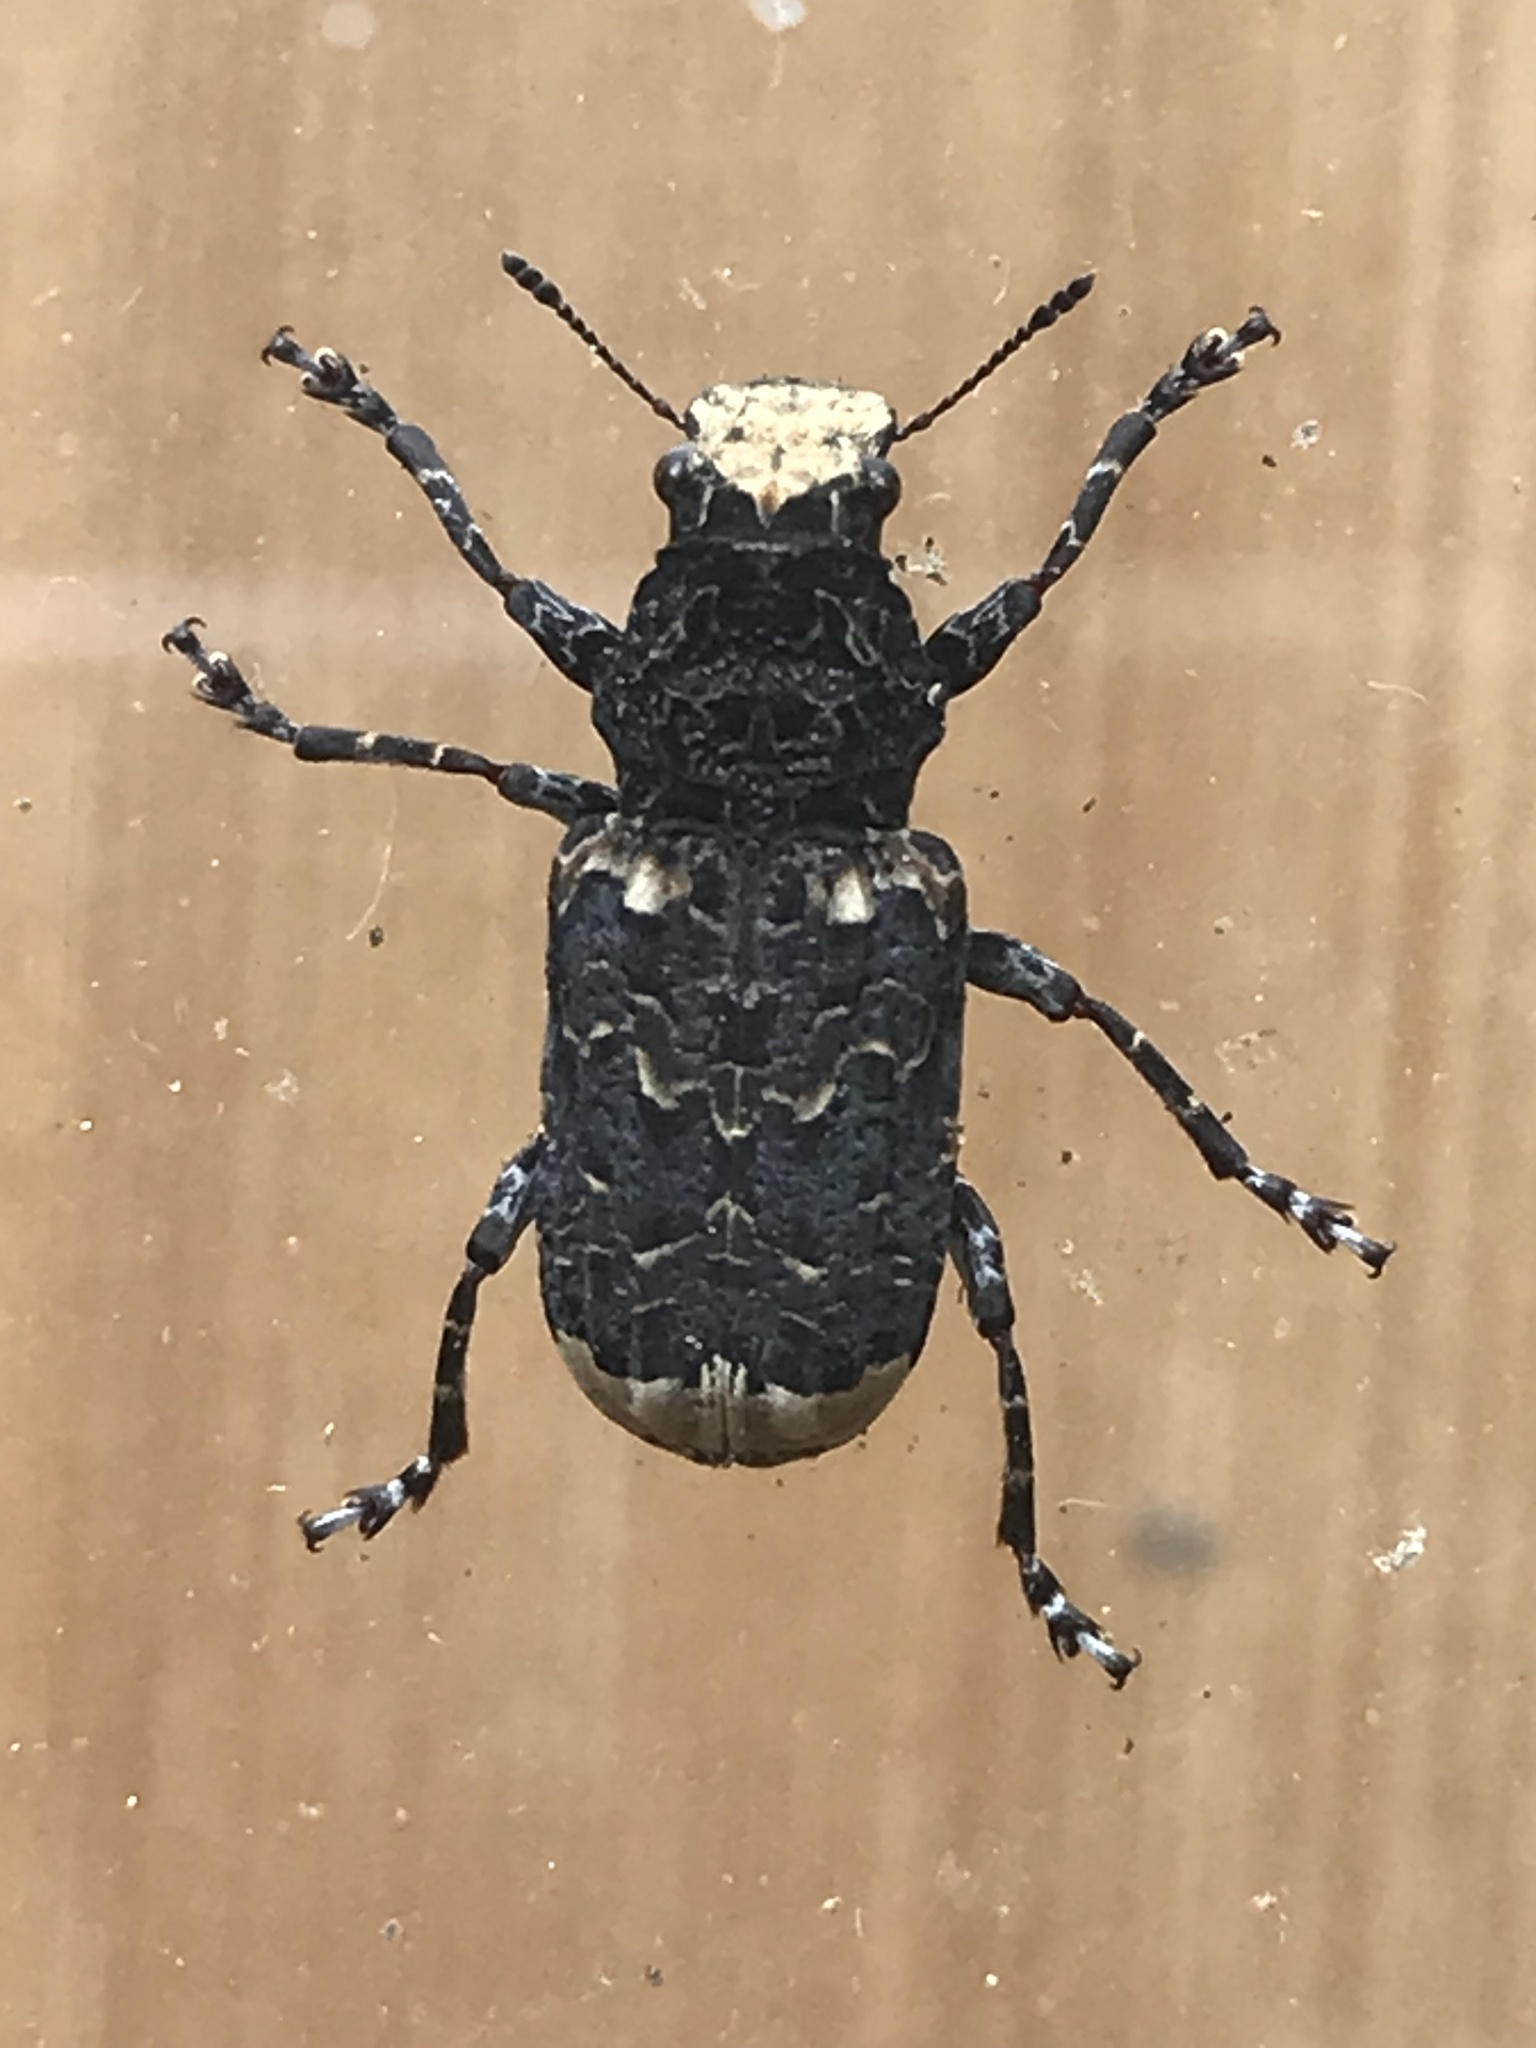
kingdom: Animalia
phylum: Arthropoda
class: Insecta
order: Coleoptera
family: Anthribidae
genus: Platyrhinus
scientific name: Platyrhinus resinosus
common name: Cramp-ball fungus weevil
